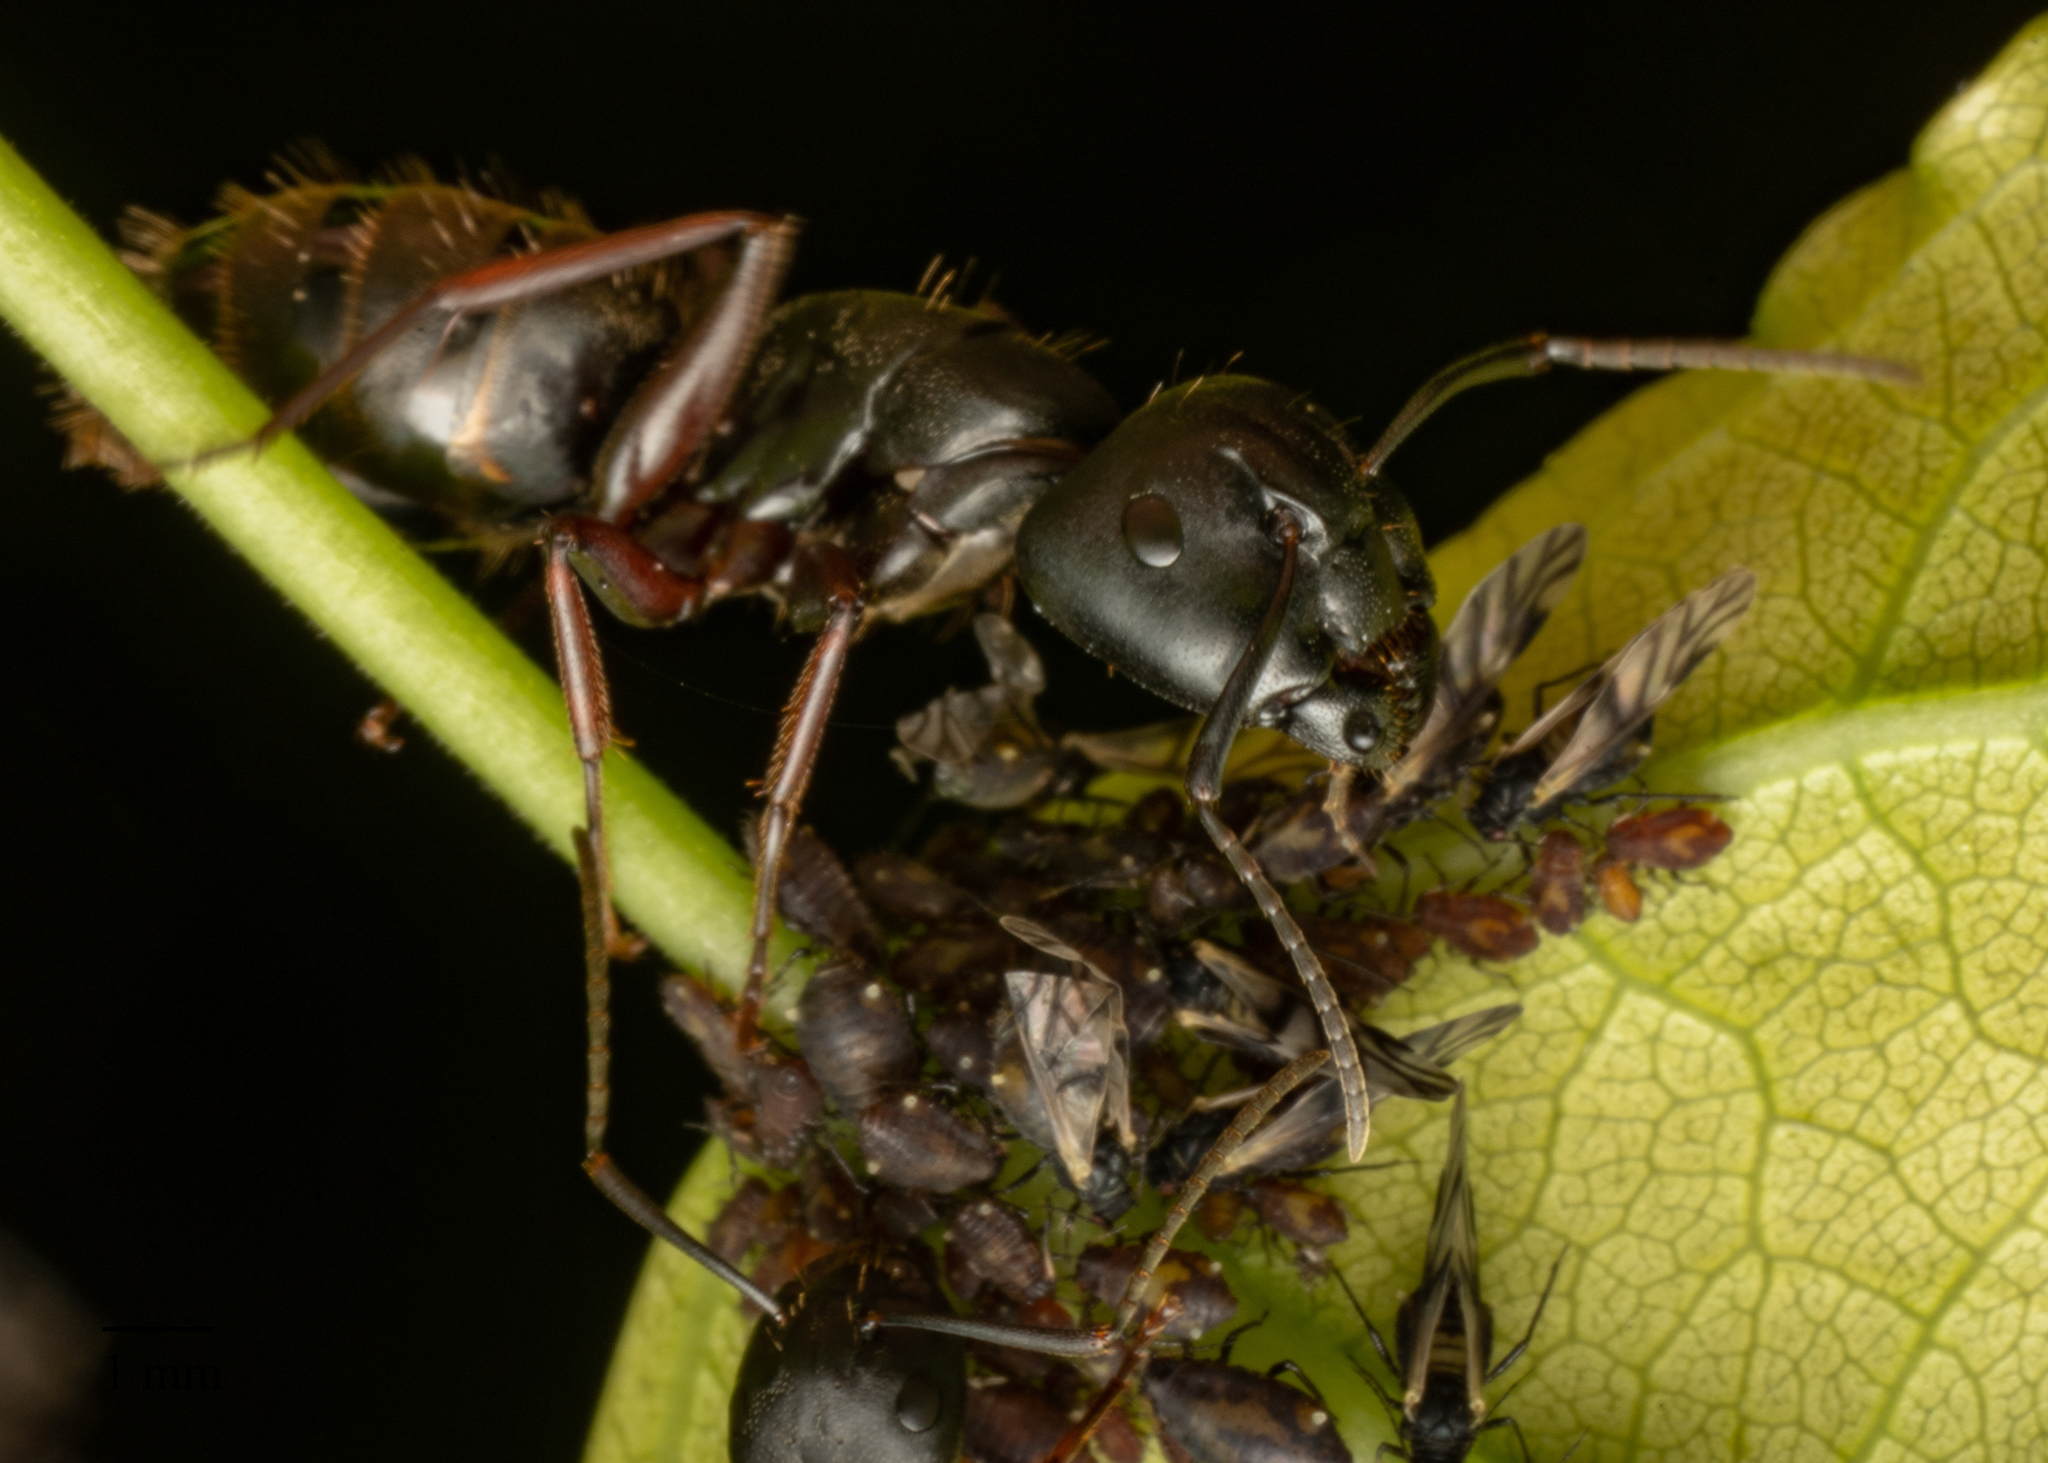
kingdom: Animalia
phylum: Arthropoda
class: Insecta
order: Hymenoptera
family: Formicidae
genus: Camponotus
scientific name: Camponotus modoc
